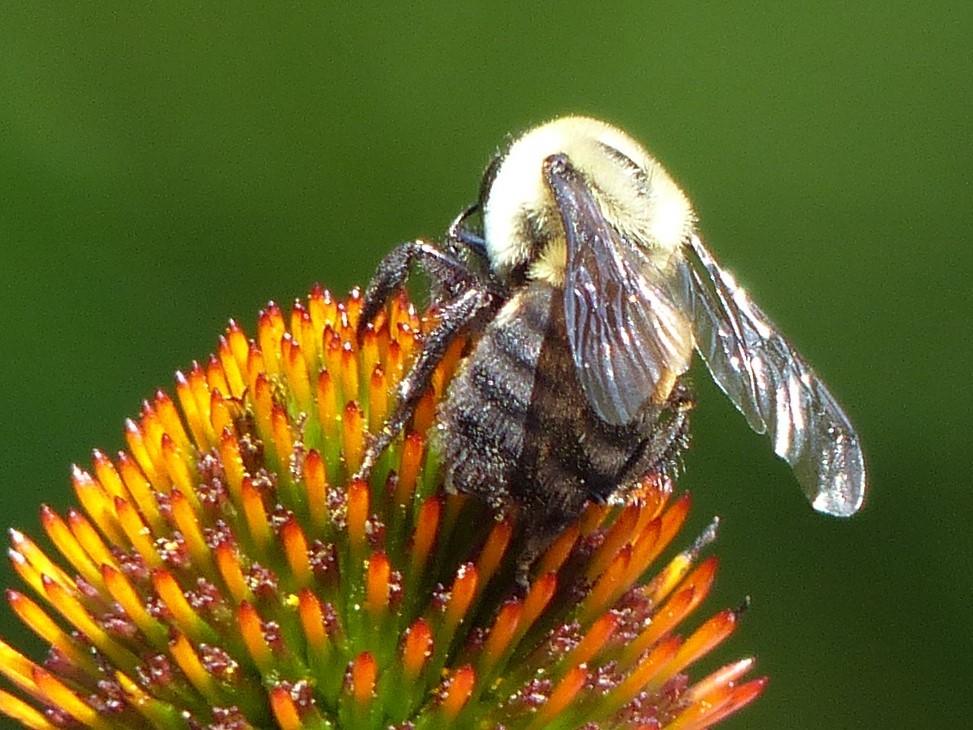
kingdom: Animalia
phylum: Arthropoda
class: Insecta
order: Hymenoptera
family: Apidae
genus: Bombus
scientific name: Bombus griseocollis
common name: Brown-belted bumble bee
